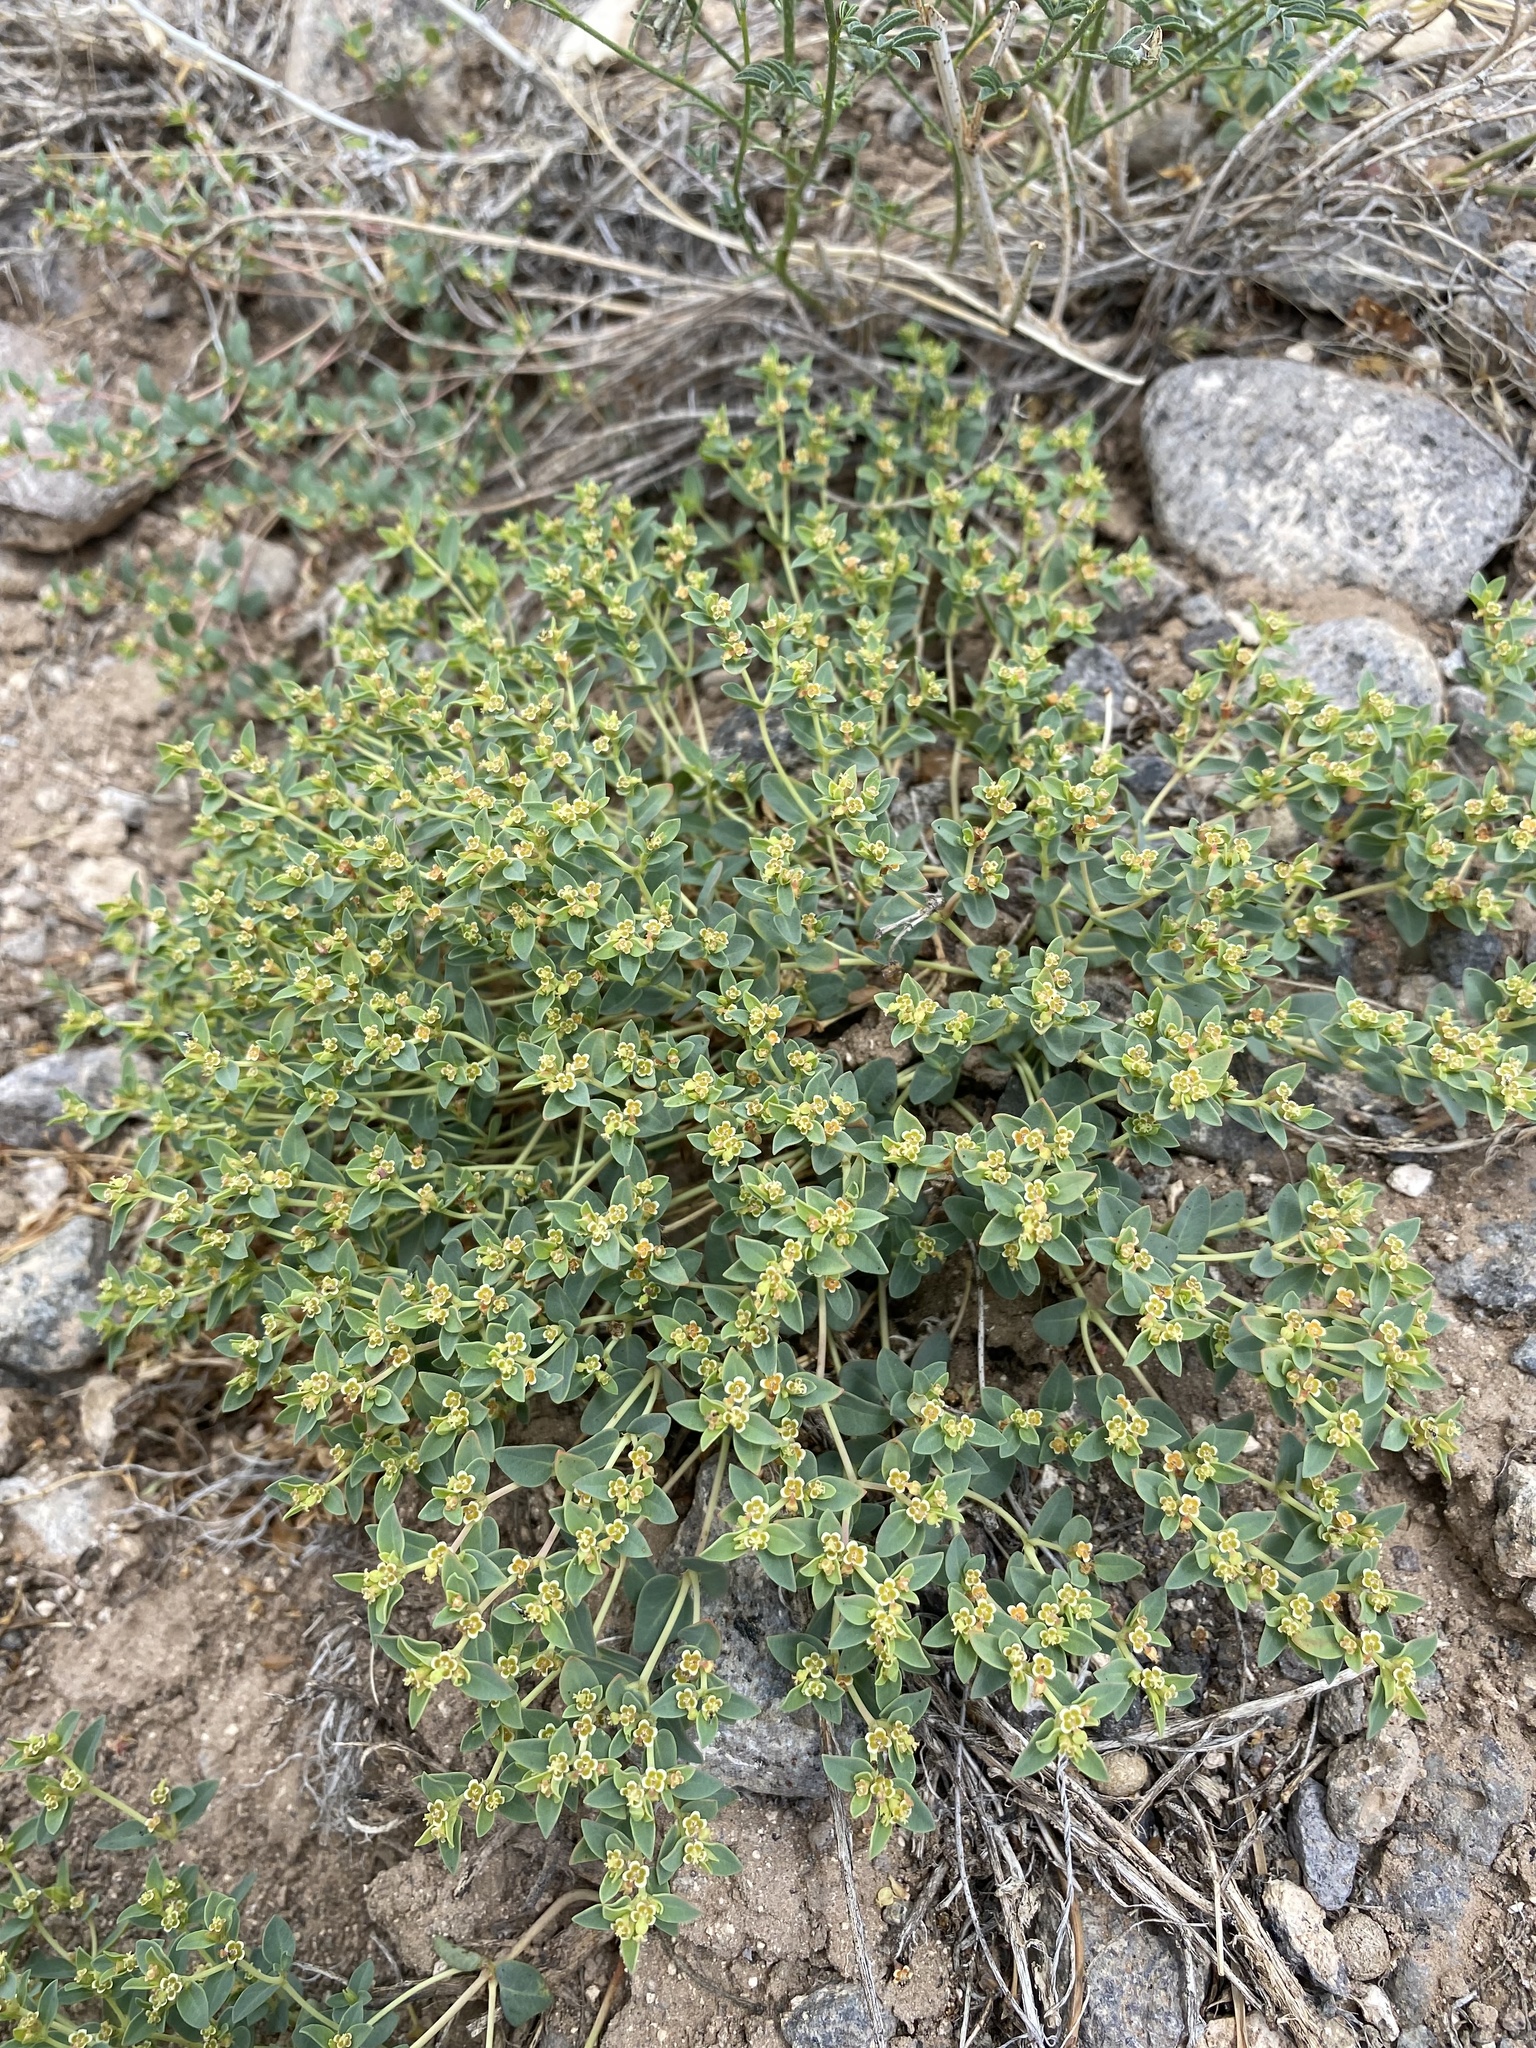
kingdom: Plantae
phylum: Tracheophyta
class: Magnoliopsida
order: Malpighiales
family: Euphorbiaceae
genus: Euphorbia
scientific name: Euphorbia fendleri
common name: Fendler's euphorbia
